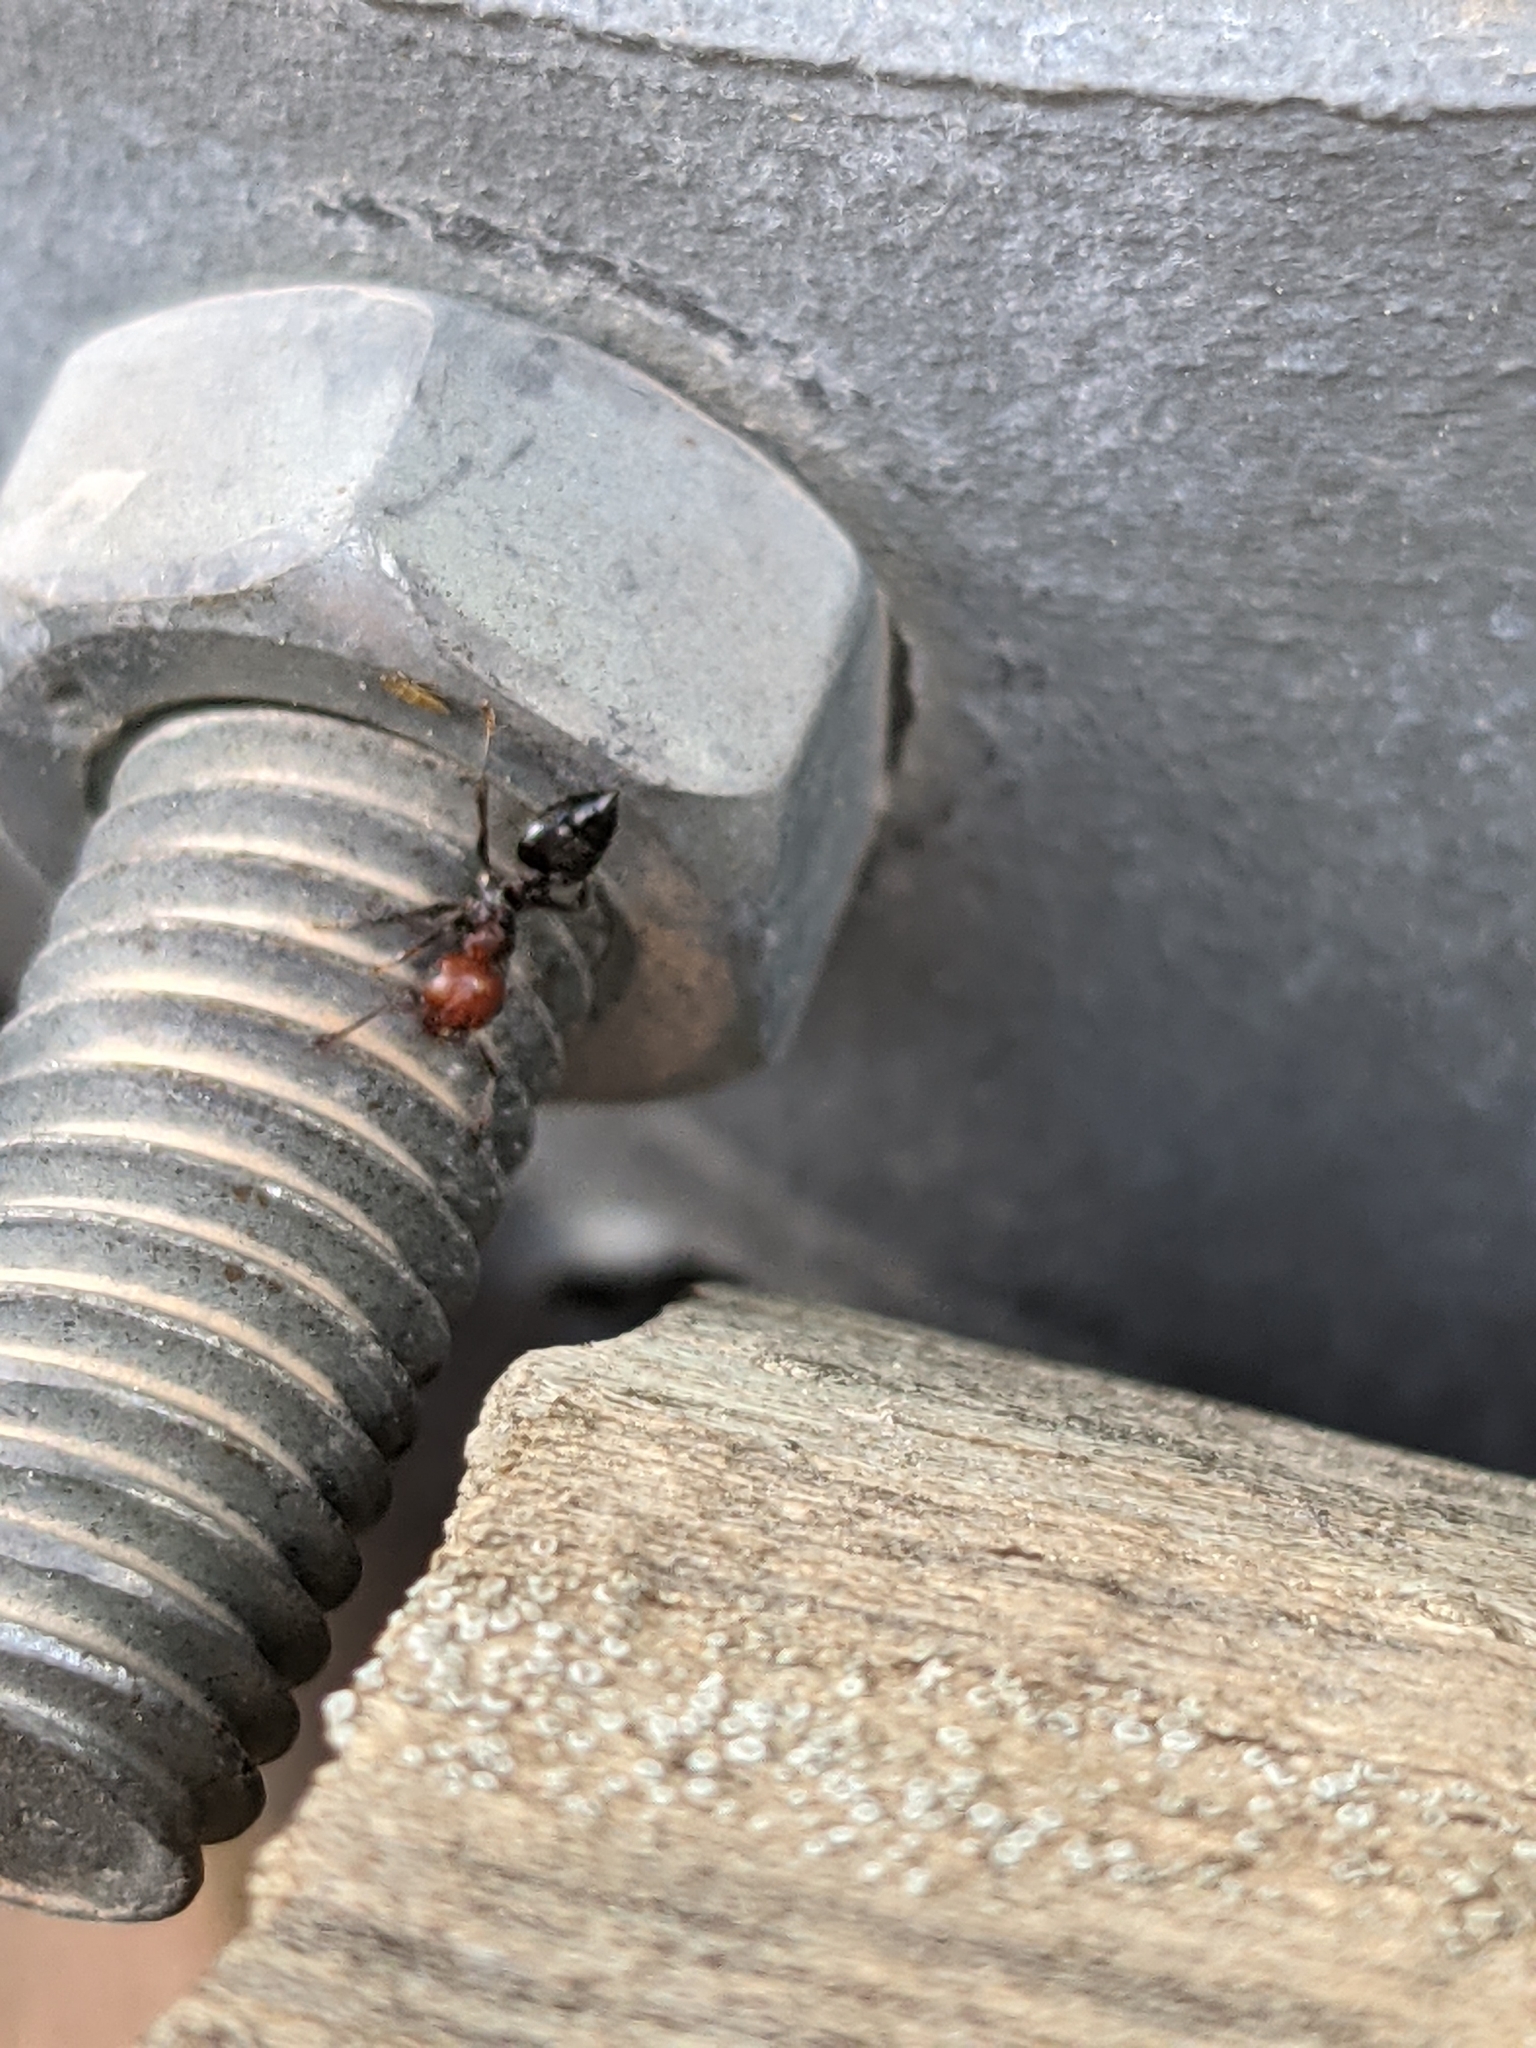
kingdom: Animalia
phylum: Arthropoda
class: Insecta
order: Hymenoptera
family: Formicidae
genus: Crematogaster
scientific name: Crematogaster scutellaris
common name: Fourmi du liège
